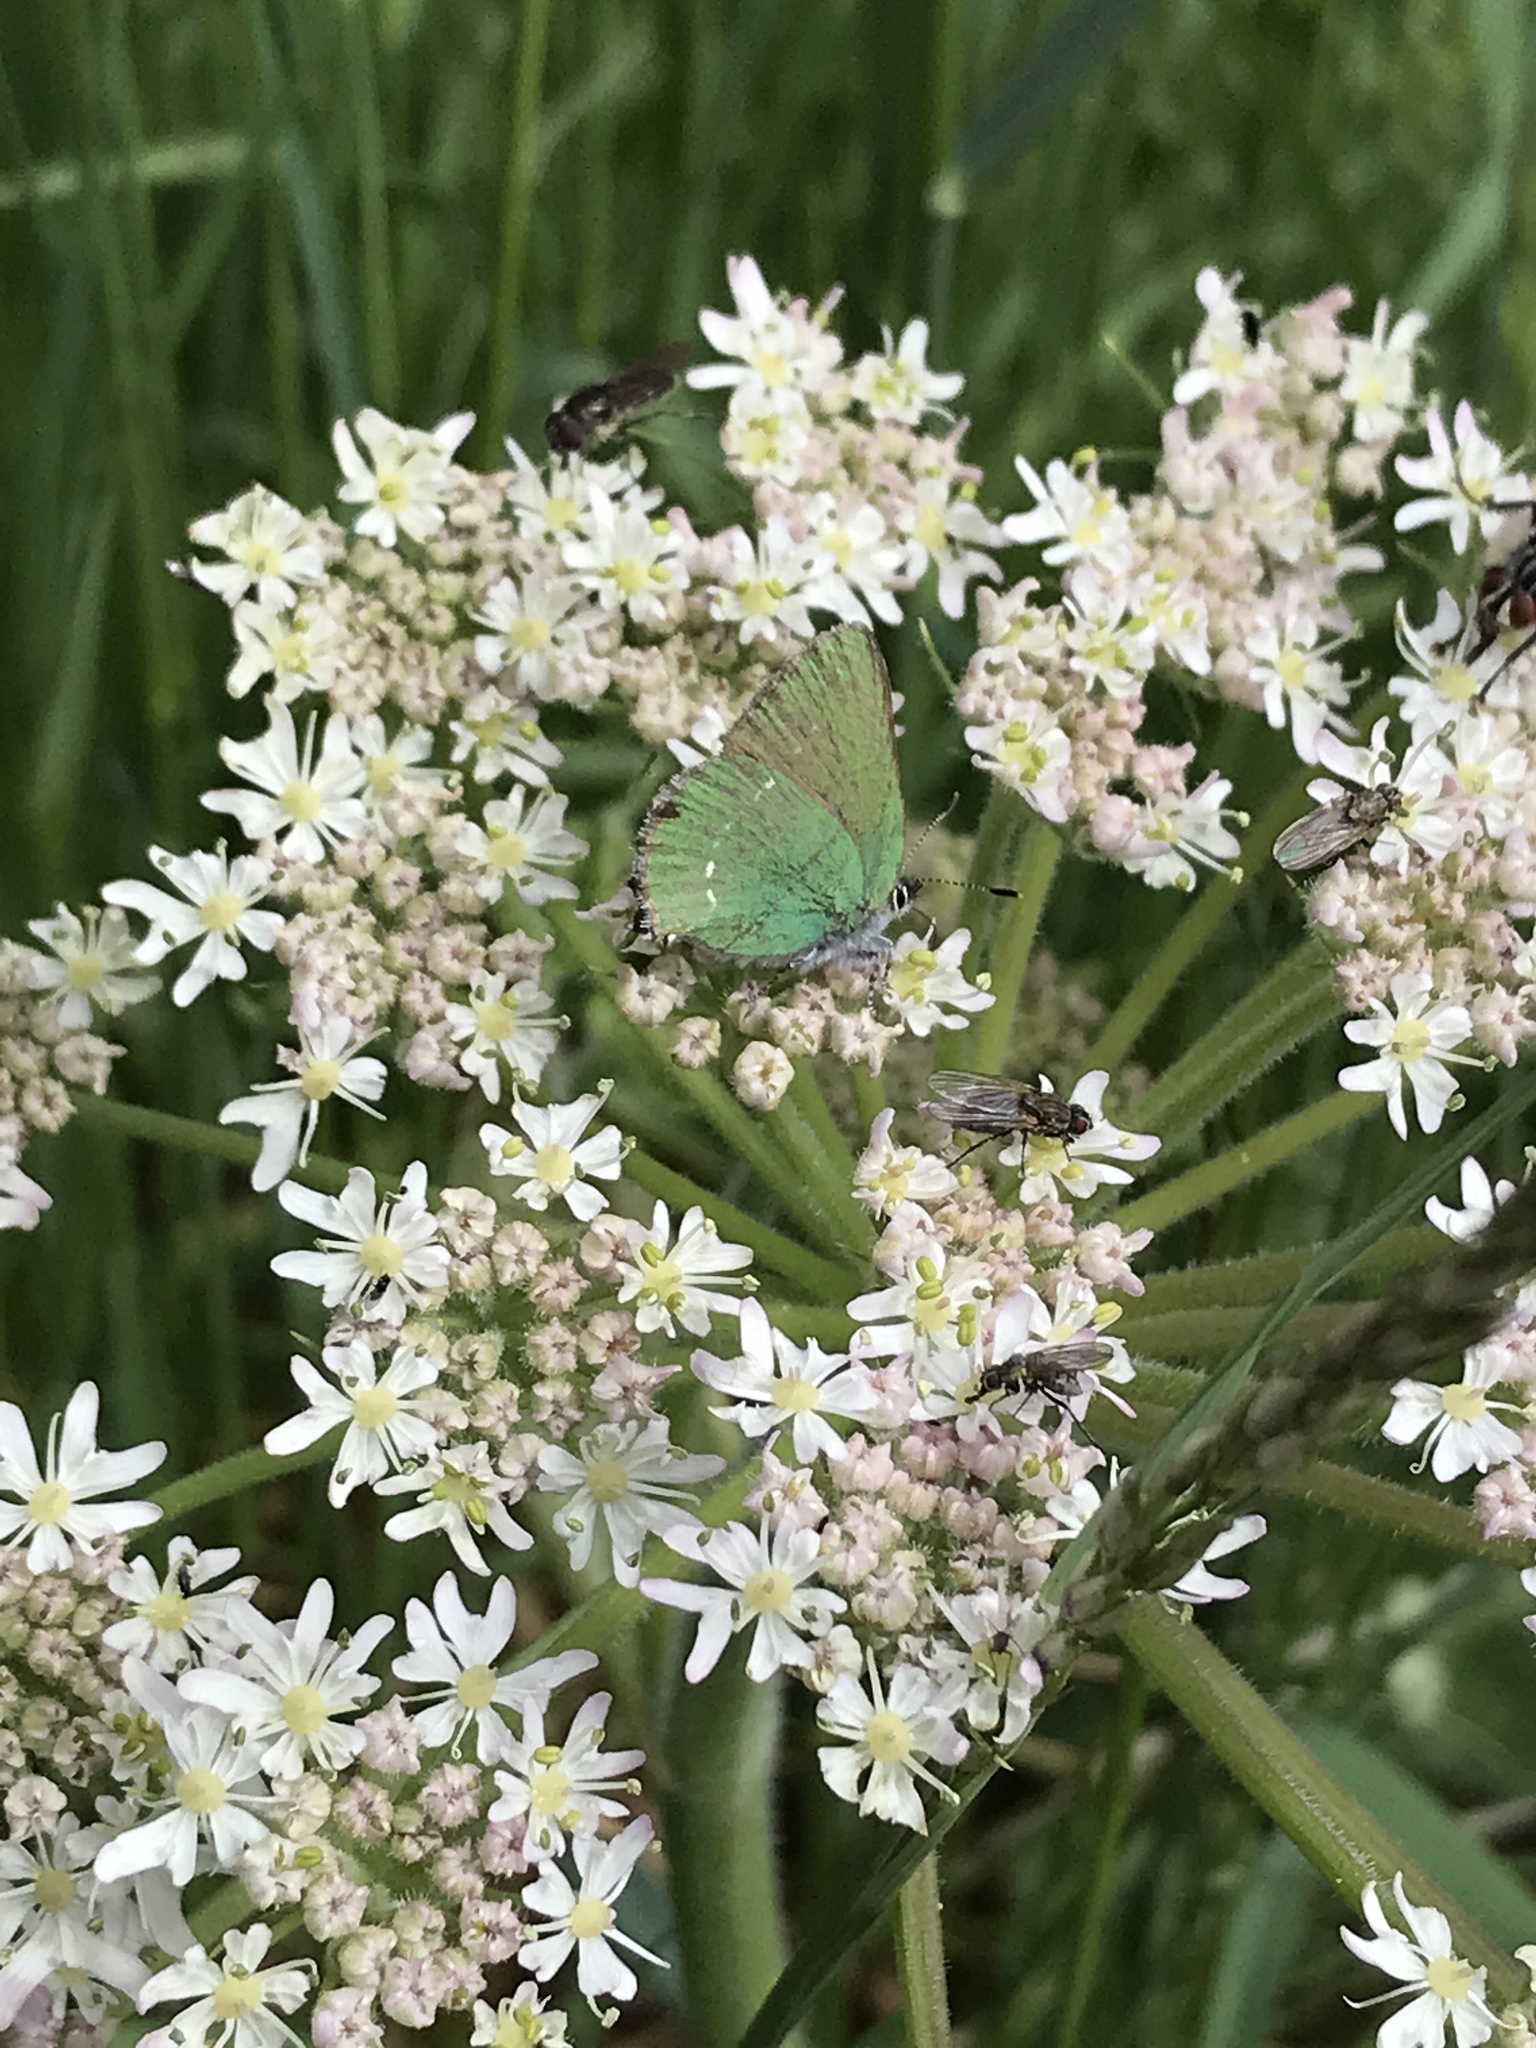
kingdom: Animalia
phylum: Arthropoda
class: Insecta
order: Lepidoptera
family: Lycaenidae
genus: Callophrys
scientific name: Callophrys rubi
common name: Green hairstreak
